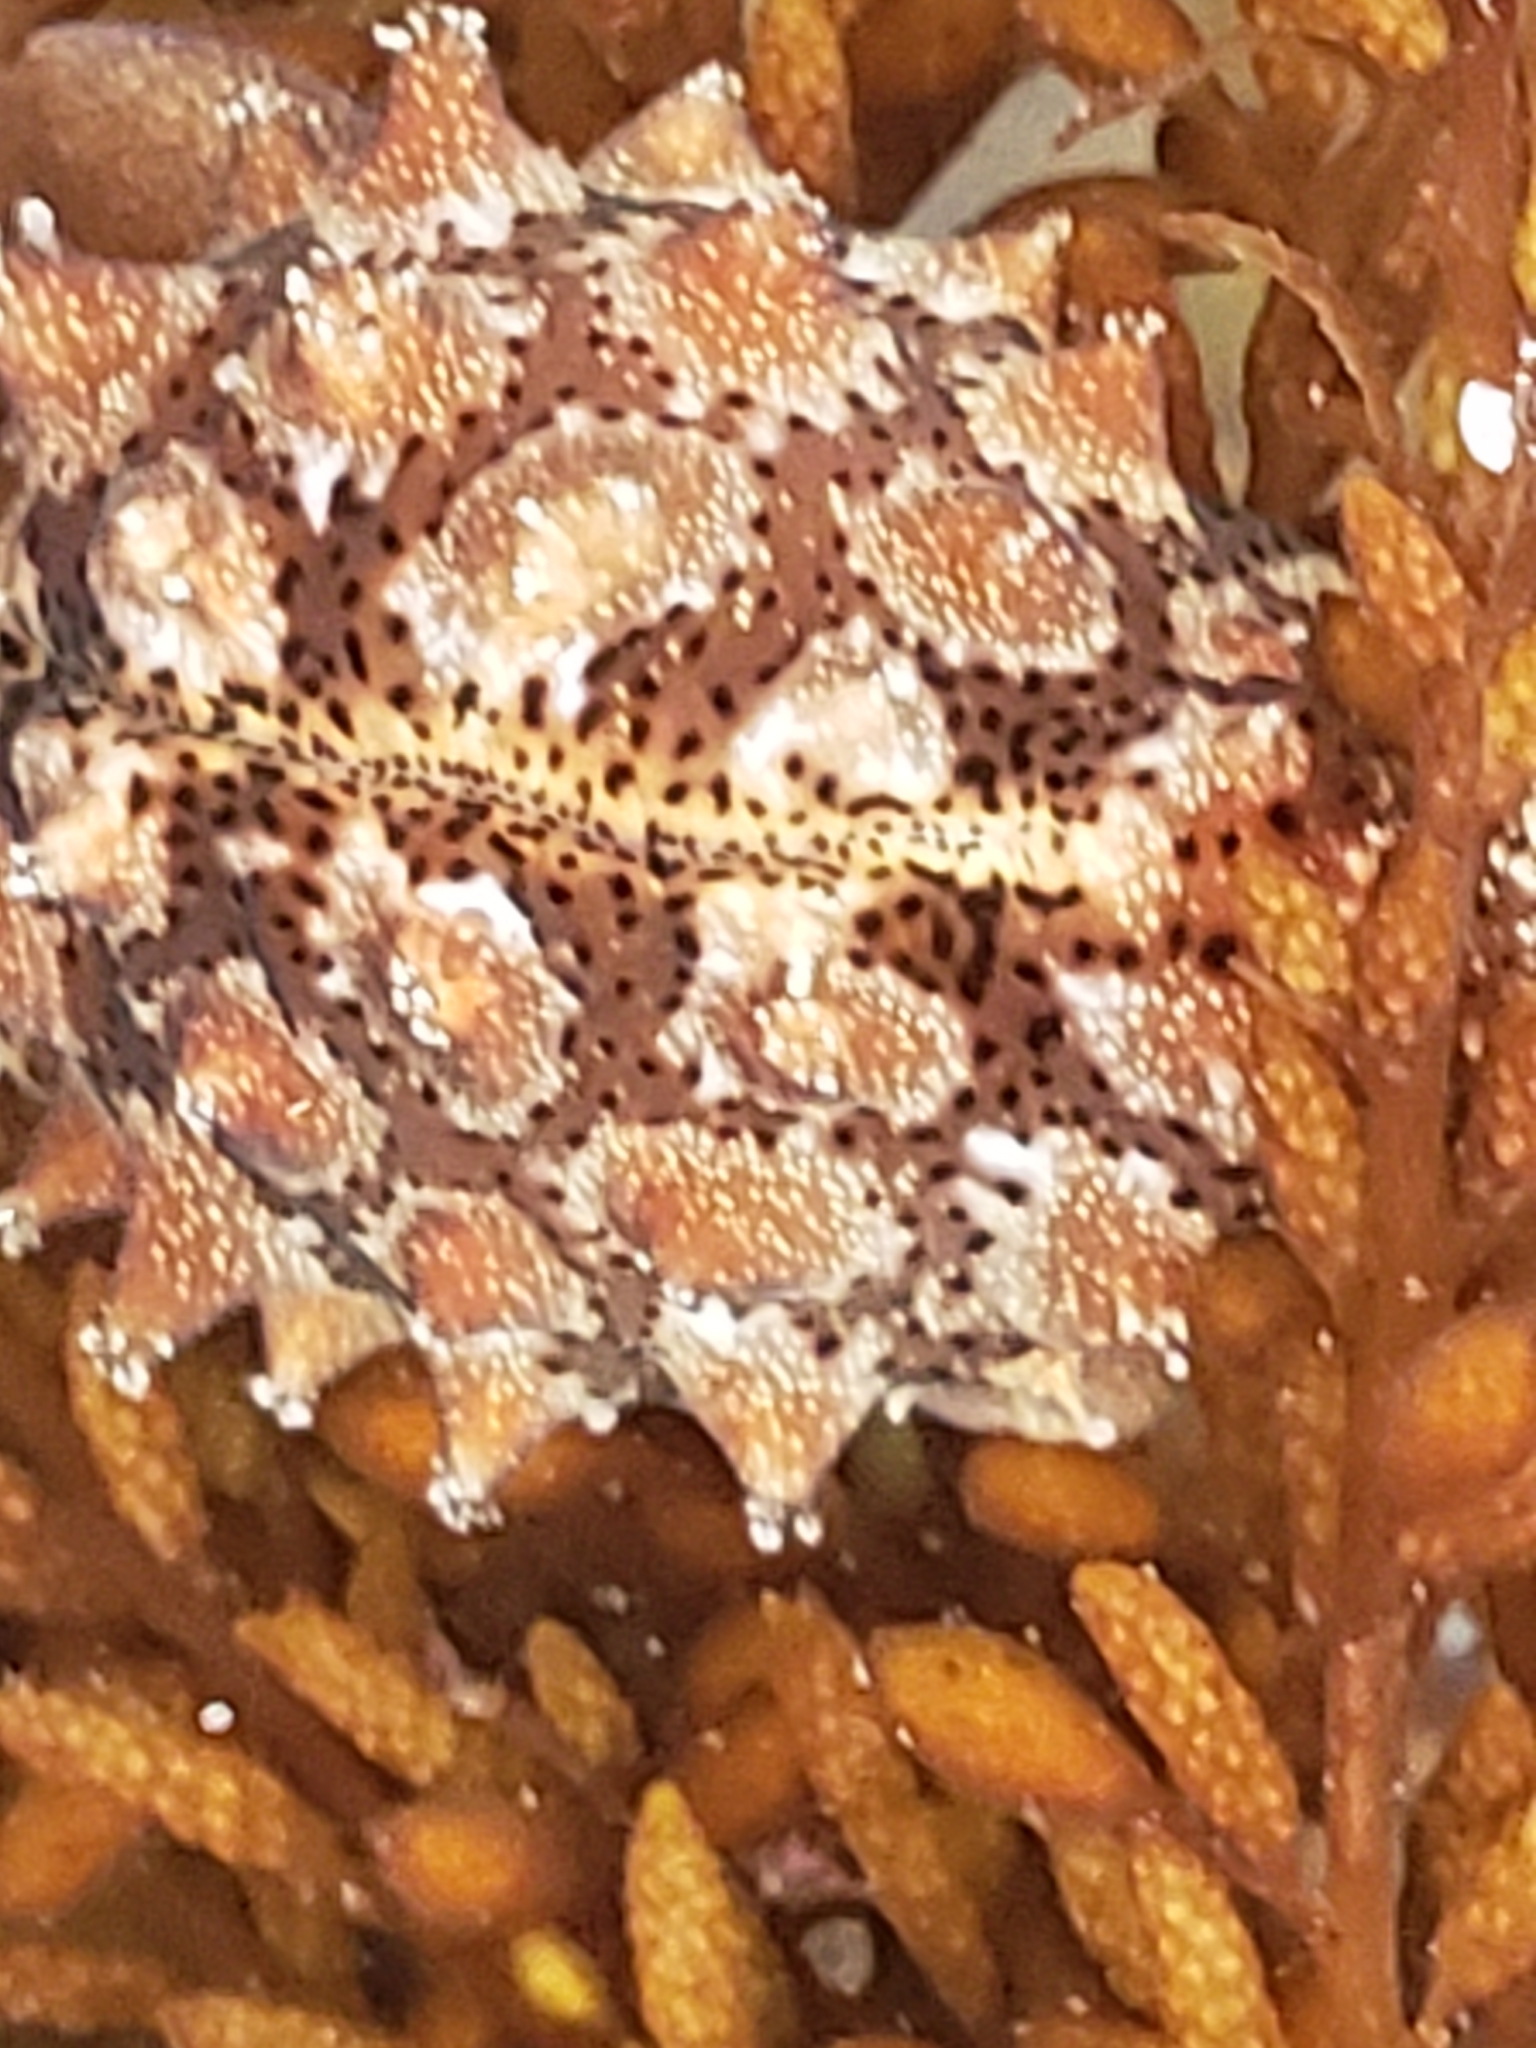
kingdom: Animalia
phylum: Mollusca
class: Gastropoda
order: Littorinimorpha
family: Triviidae
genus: Pusula
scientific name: Pusula solandri
